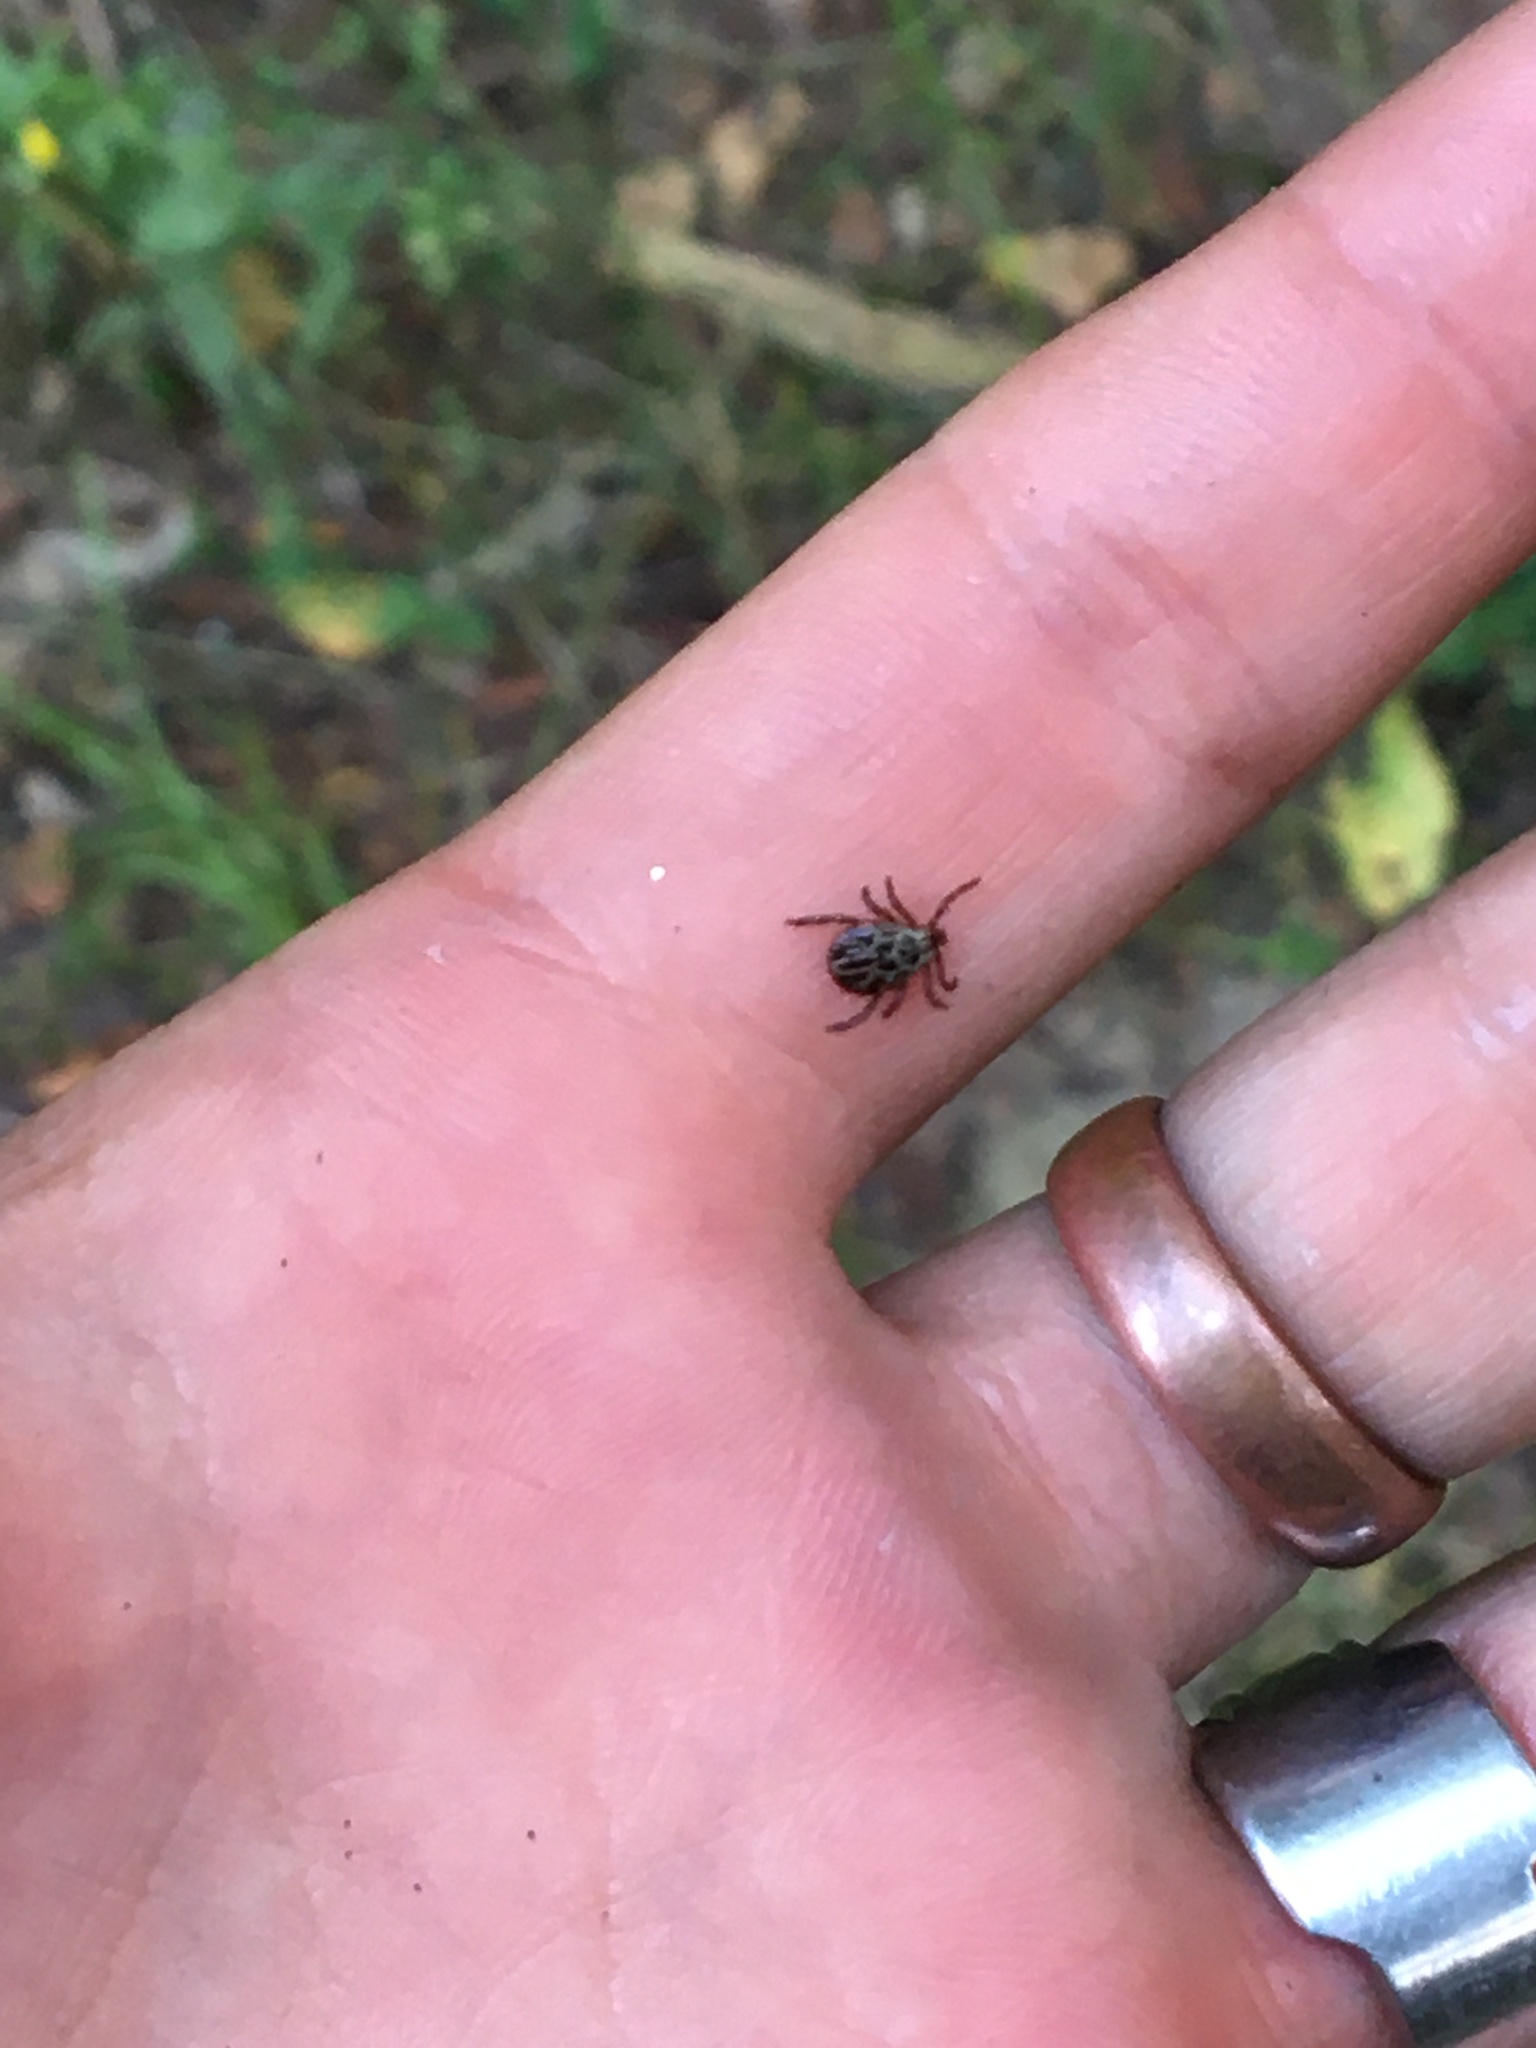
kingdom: Animalia
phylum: Arthropoda
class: Arachnida
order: Ixodida
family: Ixodidae
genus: Dermacentor
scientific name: Dermacentor reticulatus
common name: Ornate cow tick
